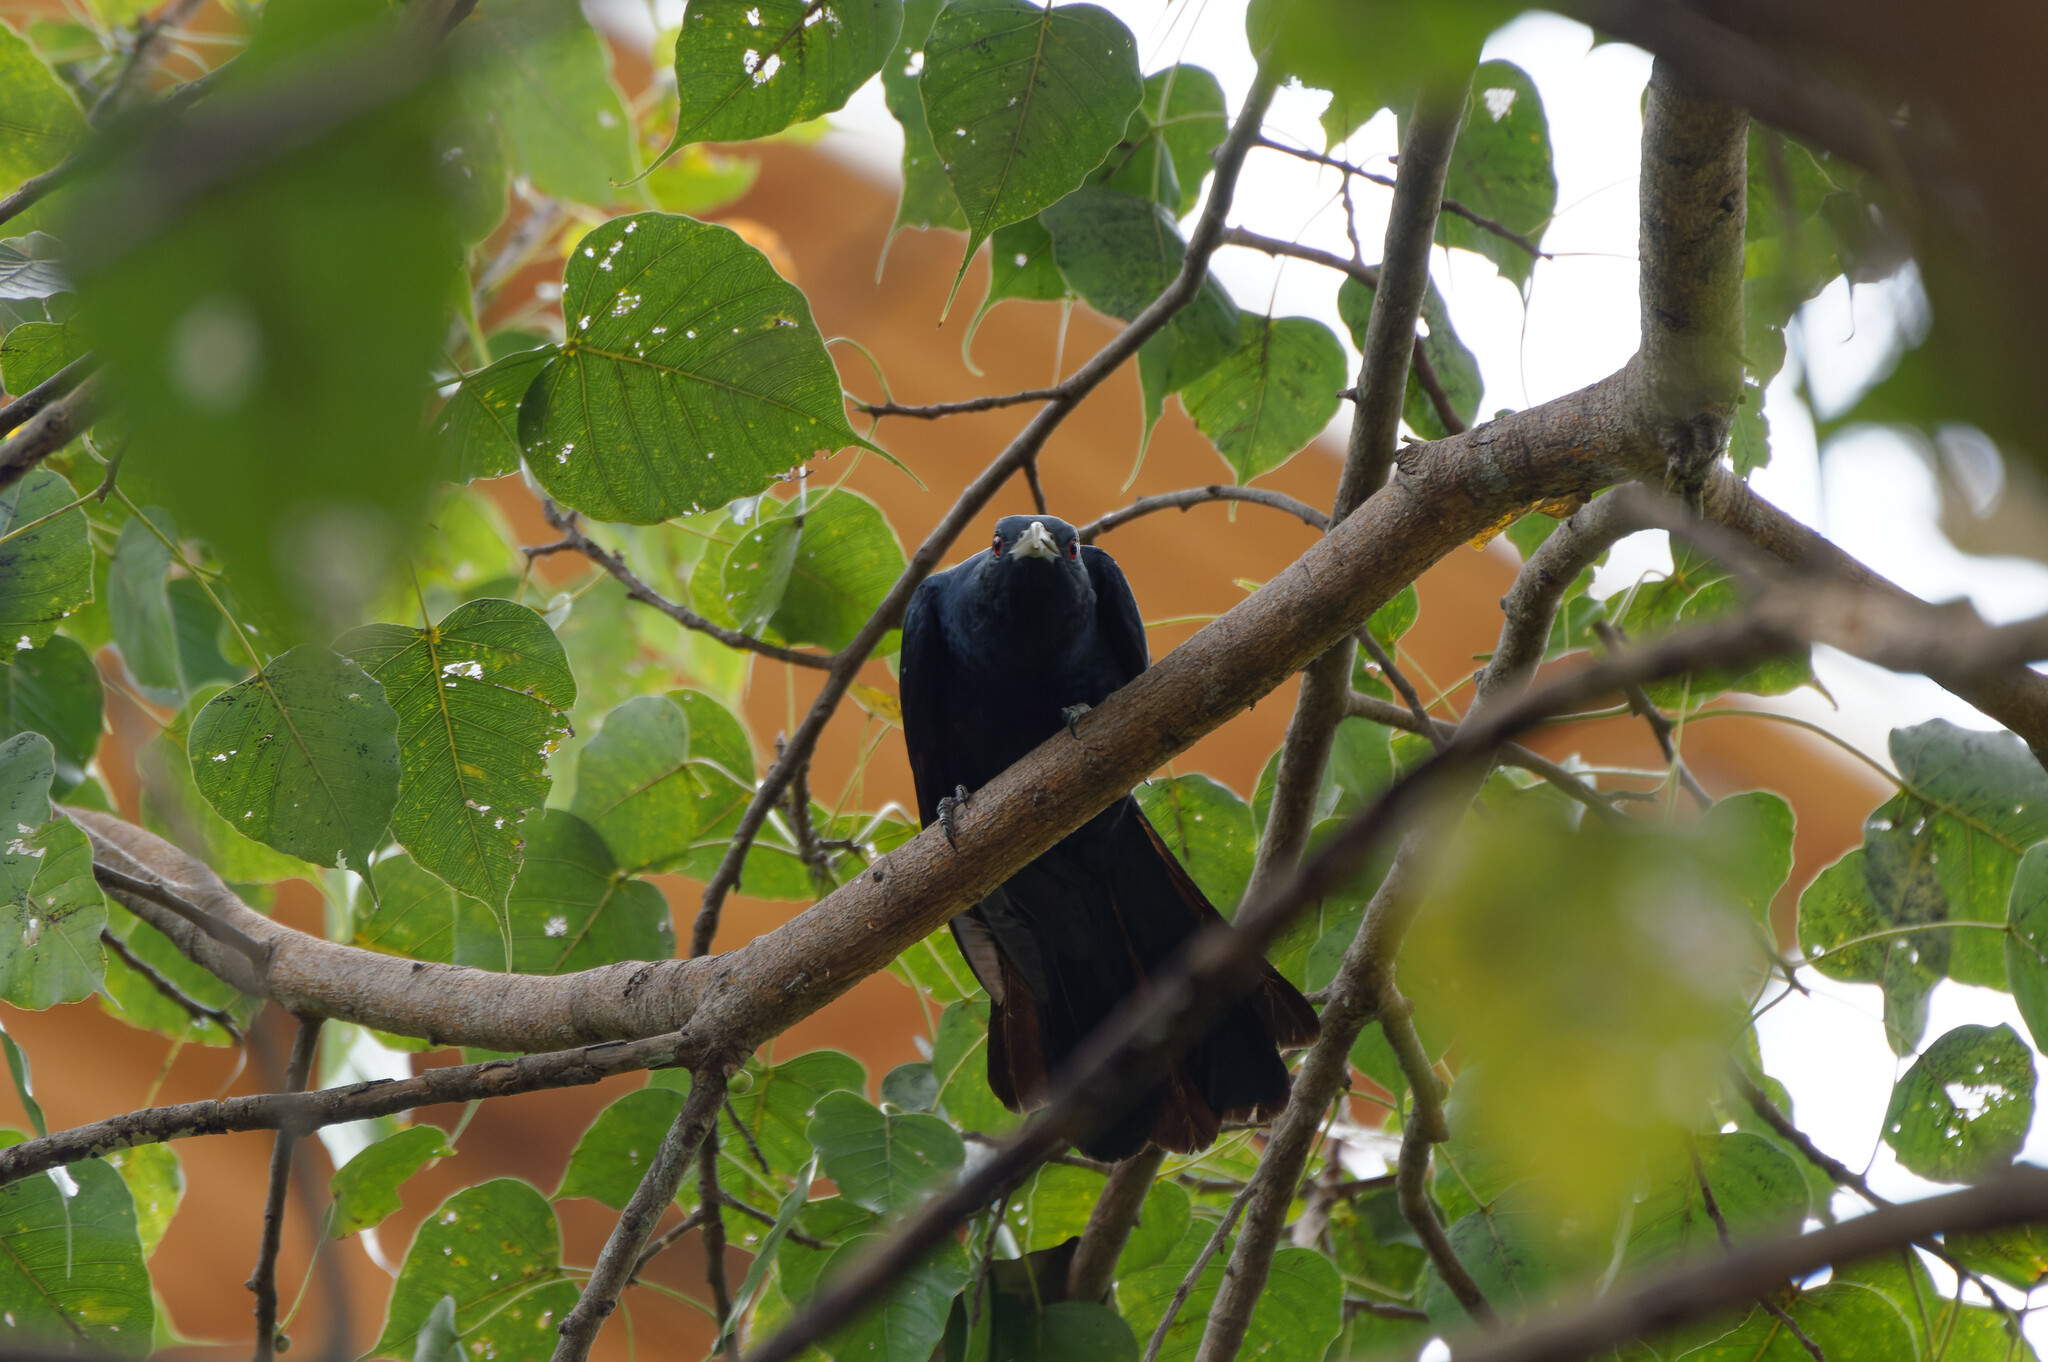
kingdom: Animalia
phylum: Chordata
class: Aves
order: Cuculiformes
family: Cuculidae
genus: Eudynamys
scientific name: Eudynamys scolopaceus
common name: Asian koel
